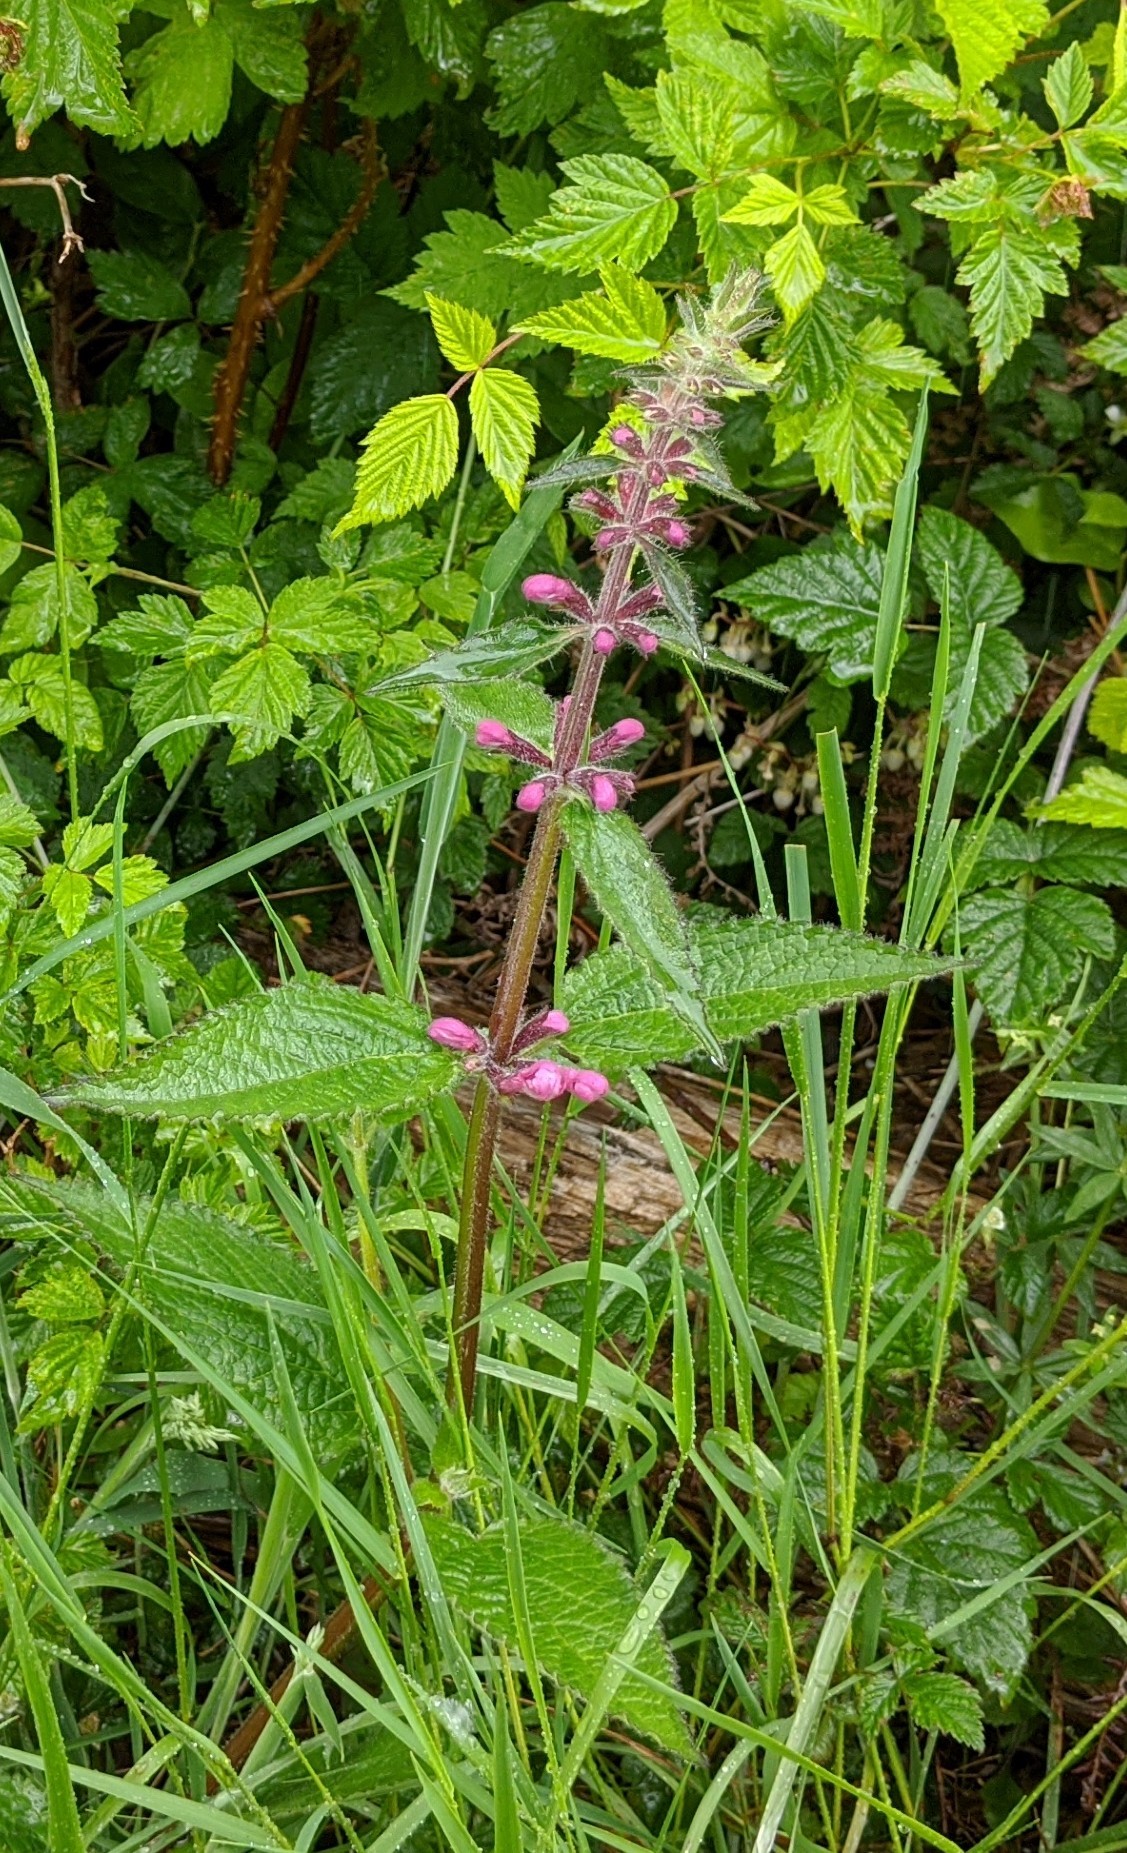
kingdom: Plantae
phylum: Tracheophyta
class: Magnoliopsida
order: Lamiales
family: Lamiaceae
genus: Stachys
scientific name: Stachys chamissonis
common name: Coastal hedge-nettle
